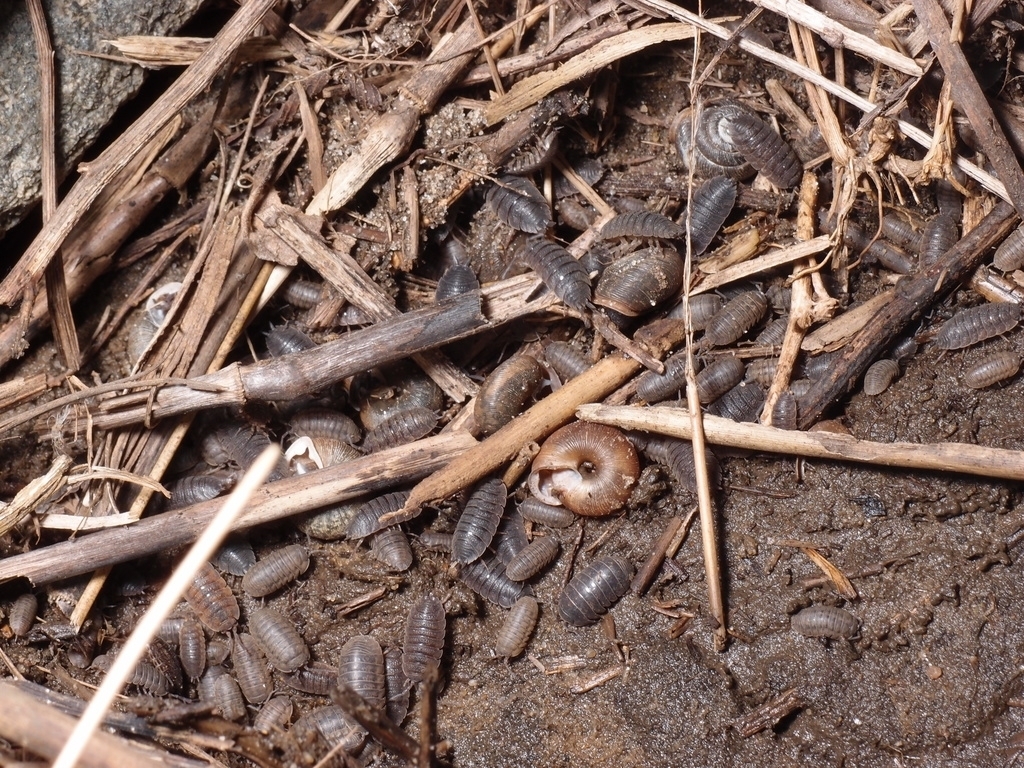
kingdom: Animalia
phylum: Arthropoda
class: Malacostraca
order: Isopoda
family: Armadillidiidae
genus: Armadillidium
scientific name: Armadillidium
